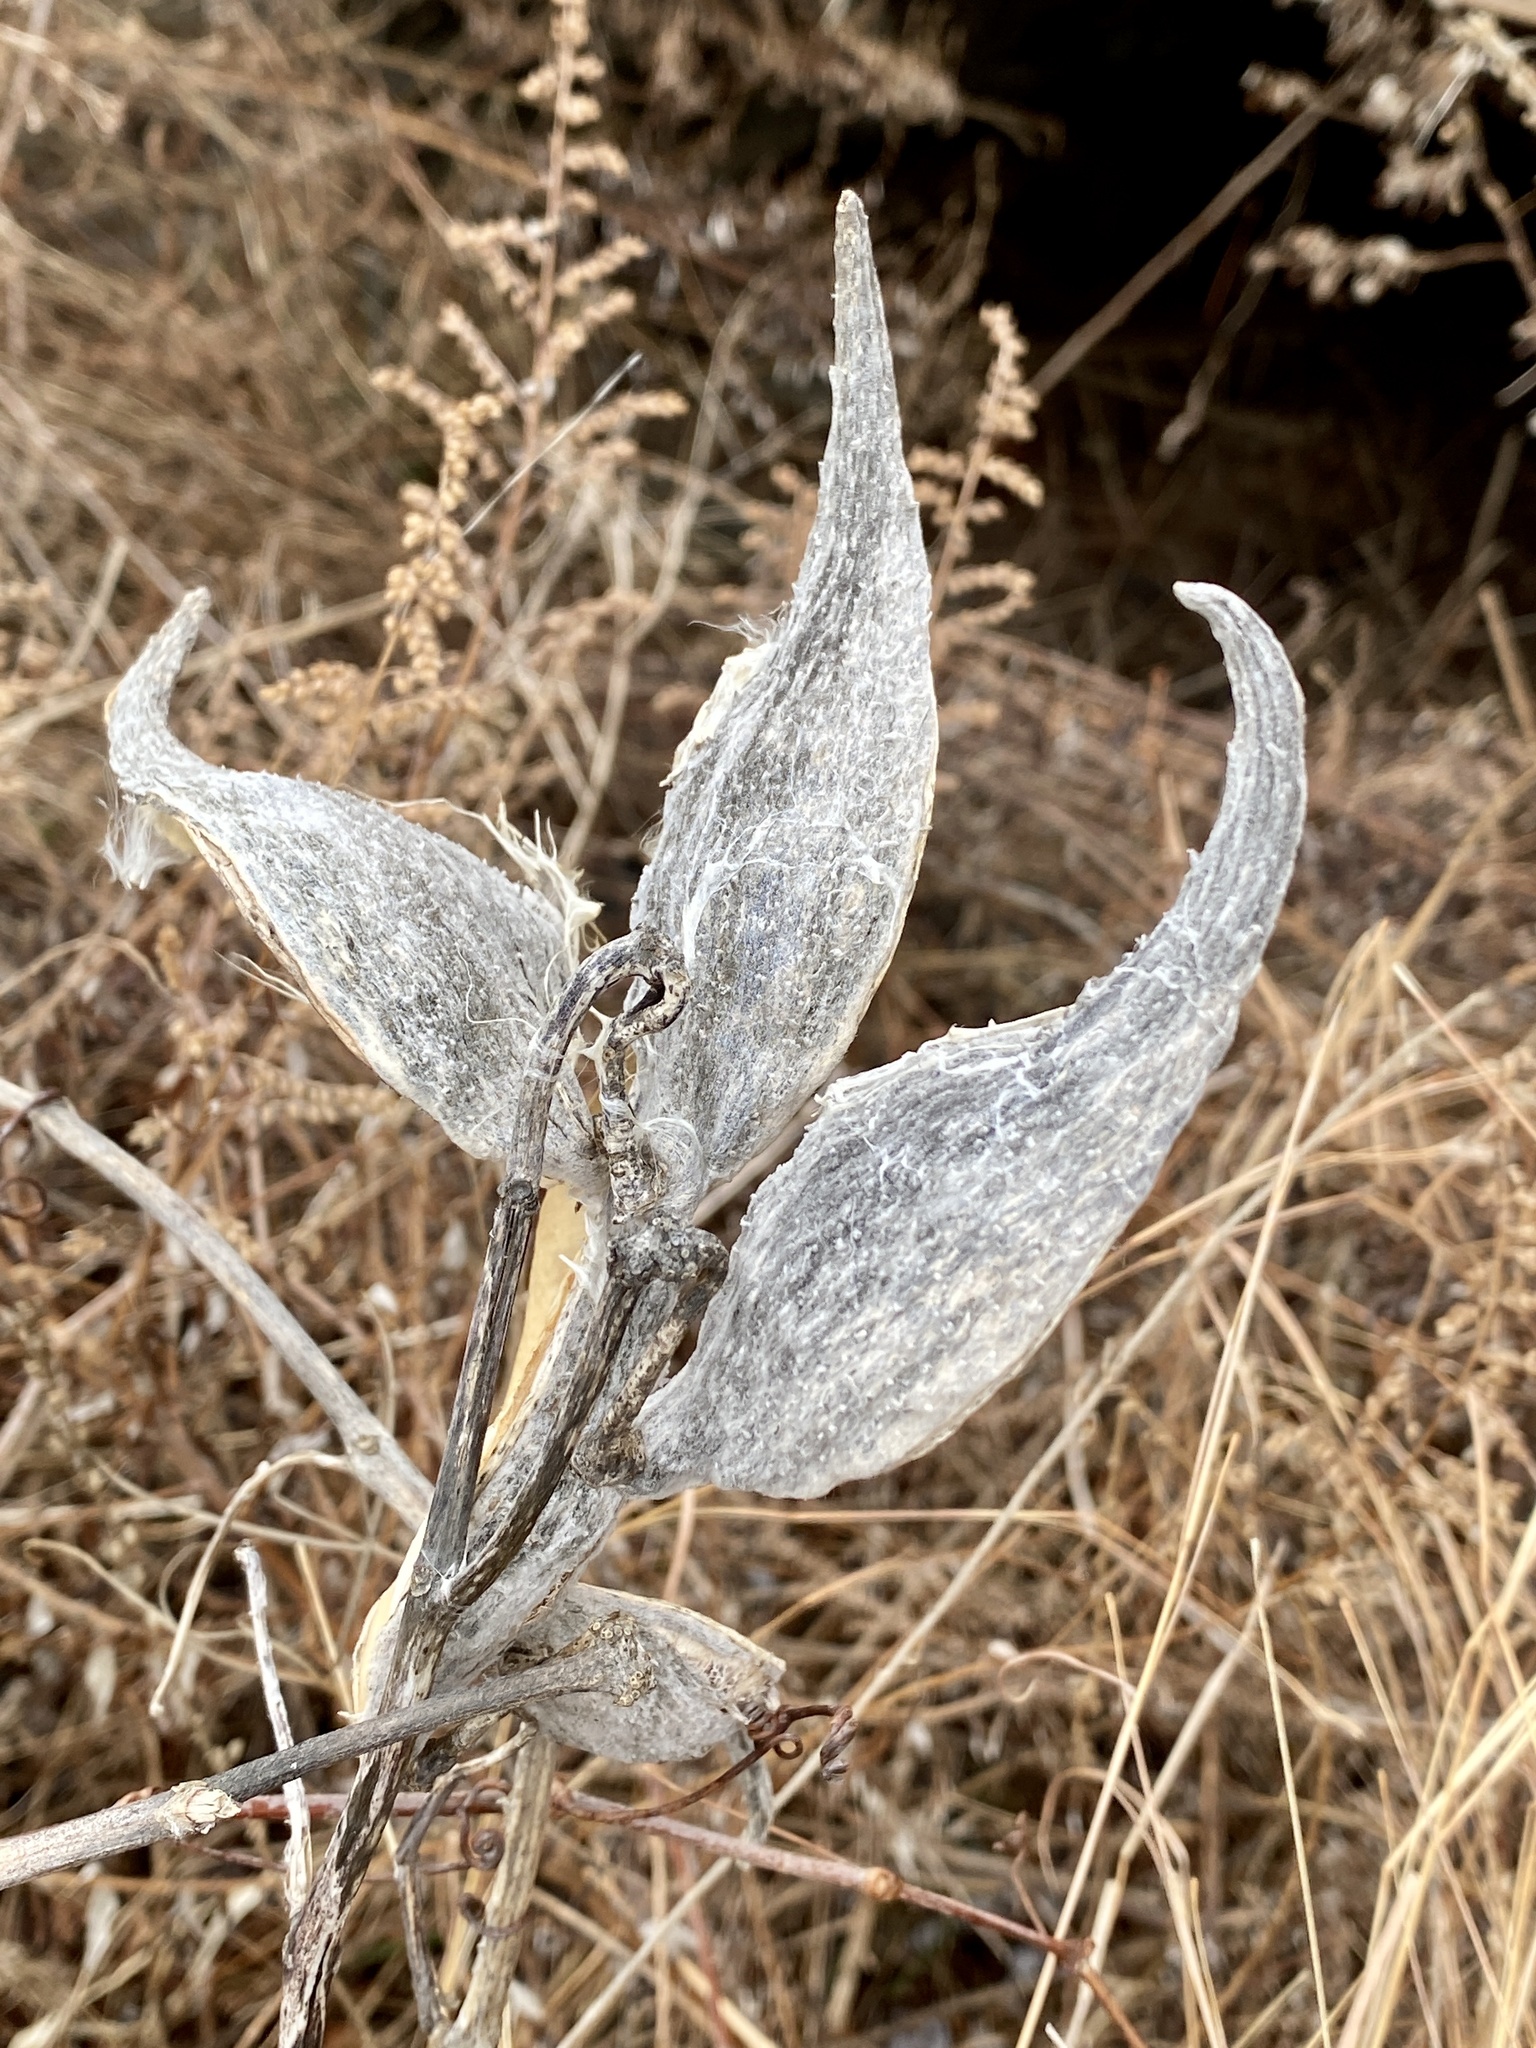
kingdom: Plantae
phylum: Tracheophyta
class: Magnoliopsida
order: Gentianales
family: Apocynaceae
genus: Asclepias
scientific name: Asclepias syriaca
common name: Common milkweed
